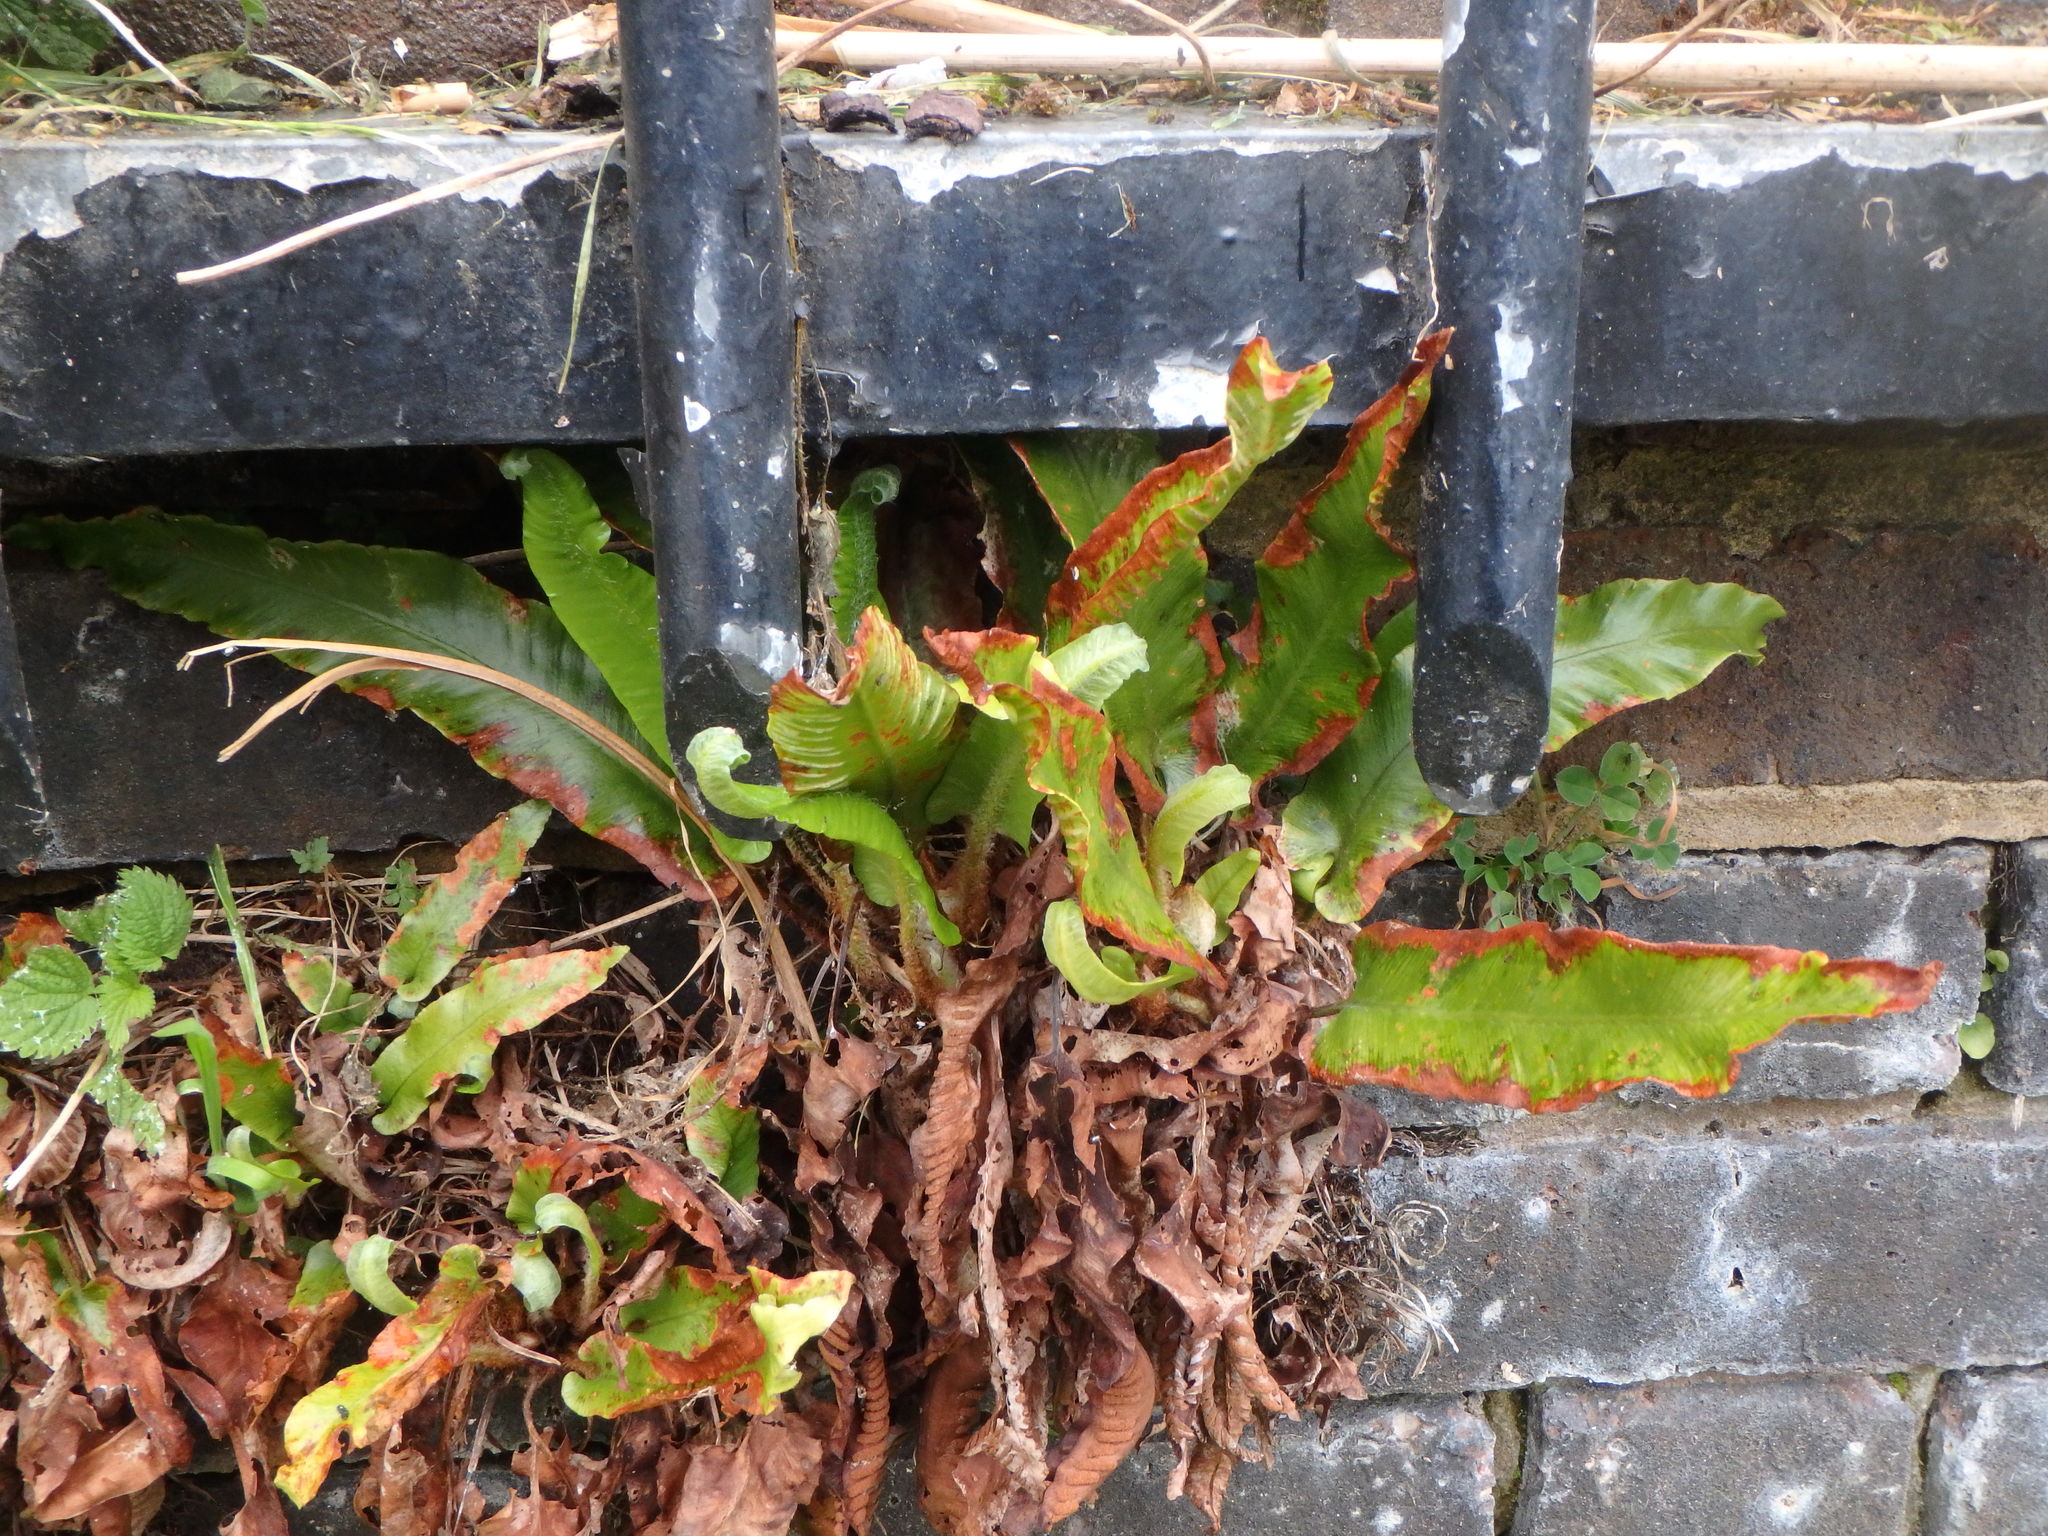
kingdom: Plantae
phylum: Tracheophyta
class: Polypodiopsida
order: Polypodiales
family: Aspleniaceae
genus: Asplenium
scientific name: Asplenium scolopendrium
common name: Hart's-tongue fern
